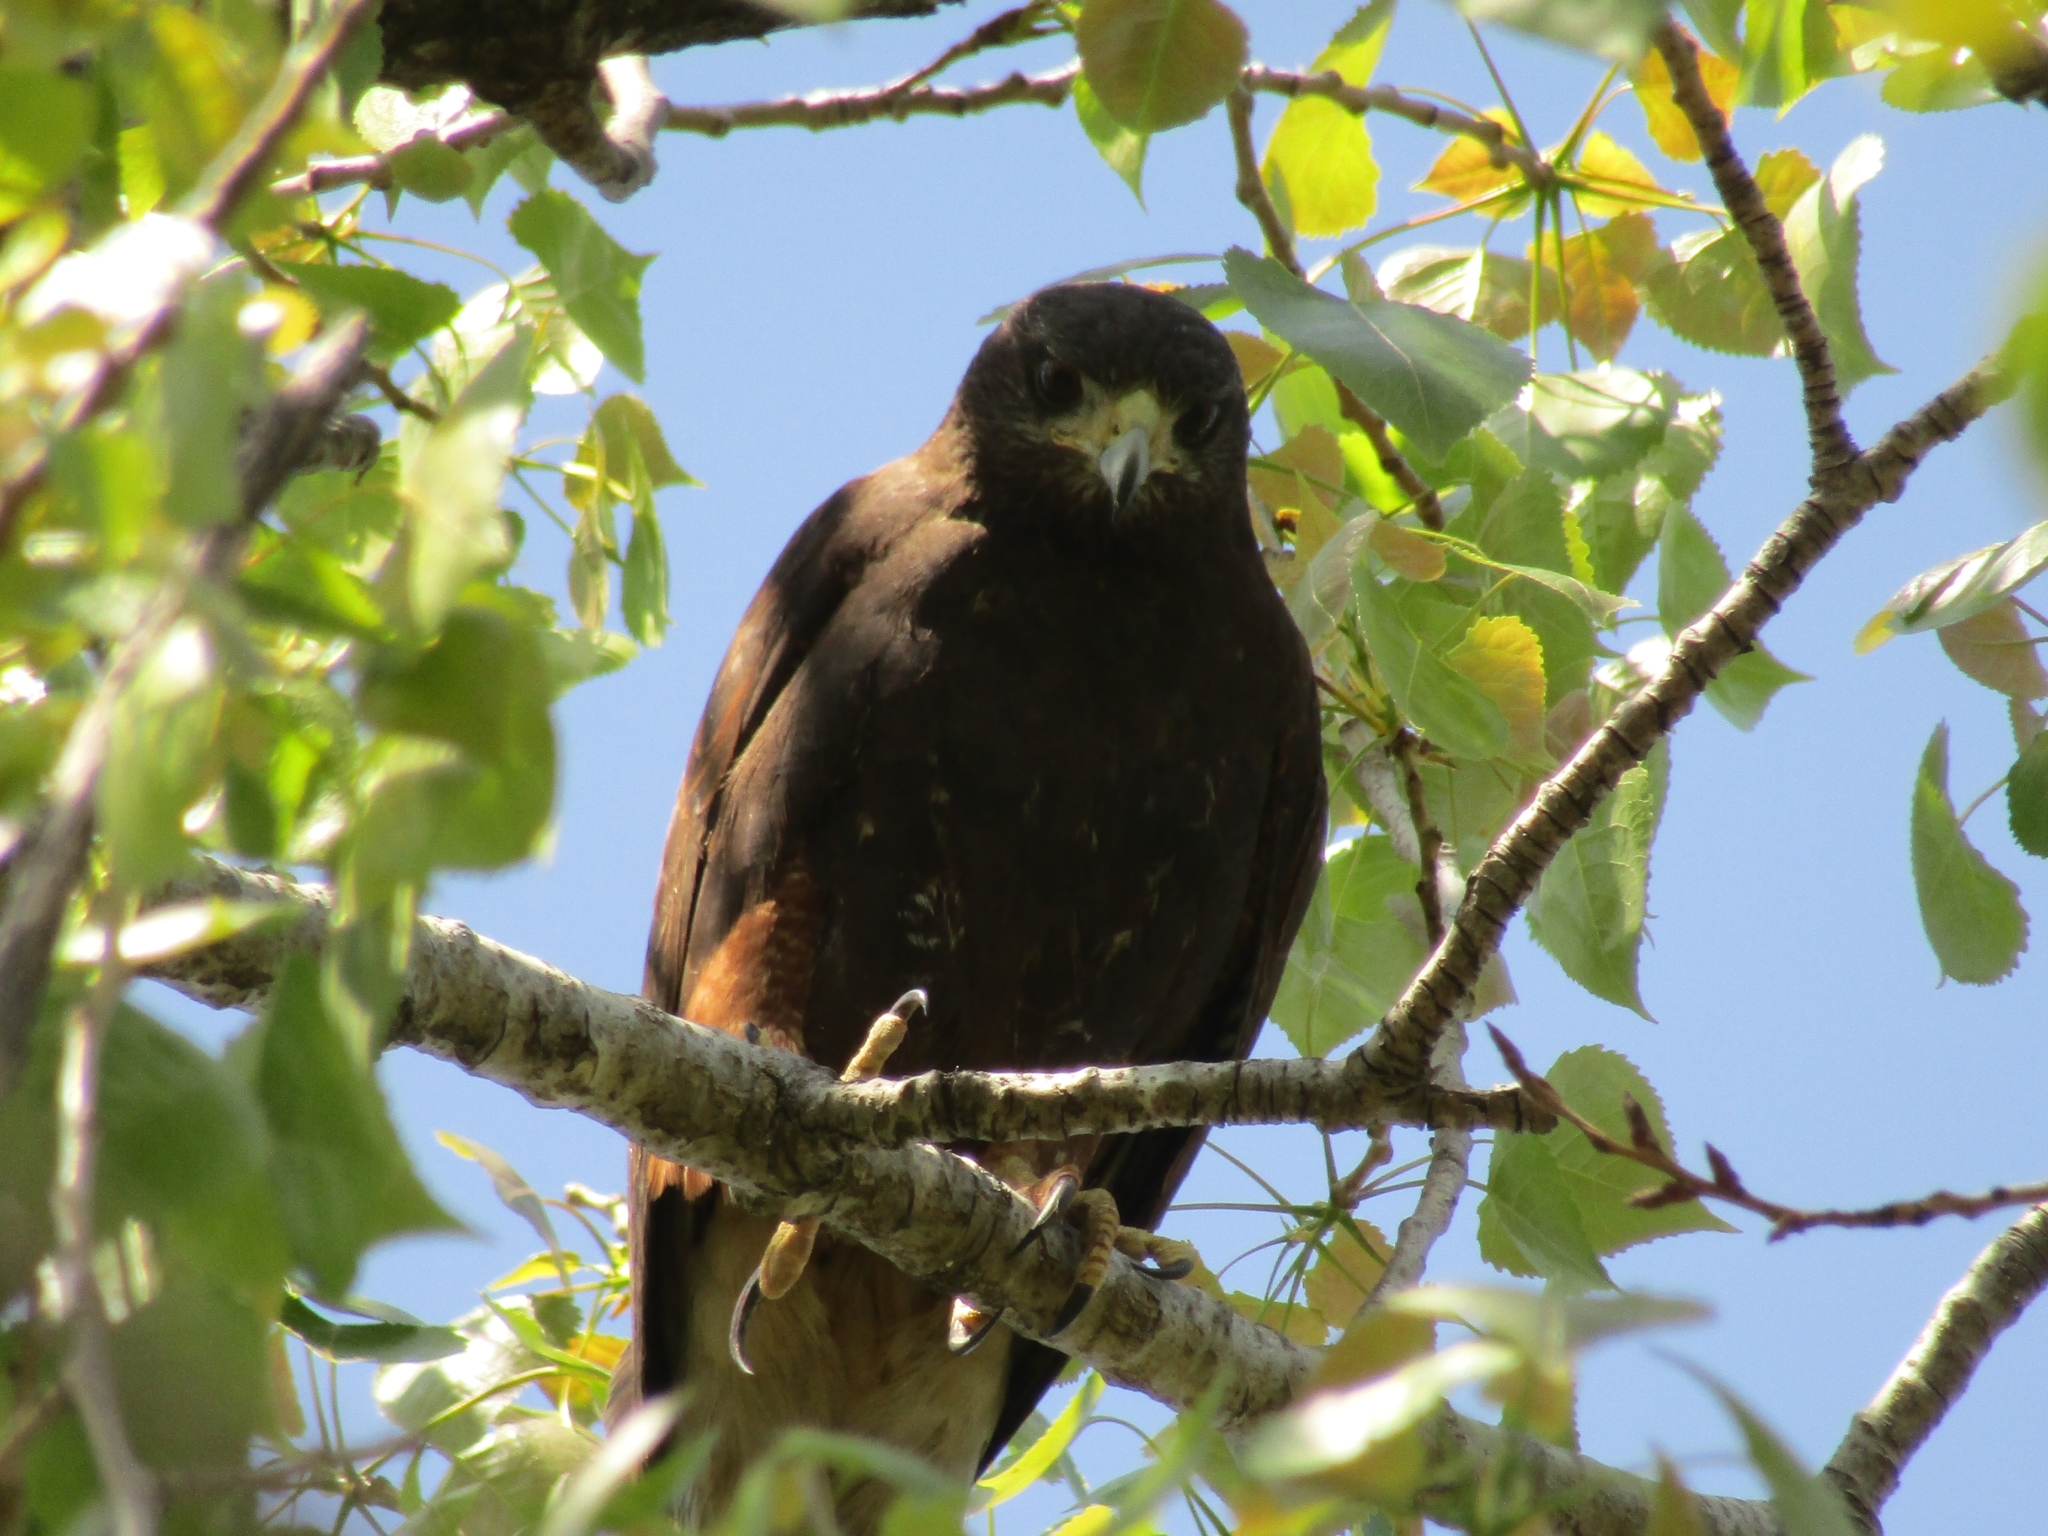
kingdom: Animalia
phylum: Chordata
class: Aves
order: Accipitriformes
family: Accipitridae
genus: Parabuteo
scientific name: Parabuteo unicinctus
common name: Harris's hawk
